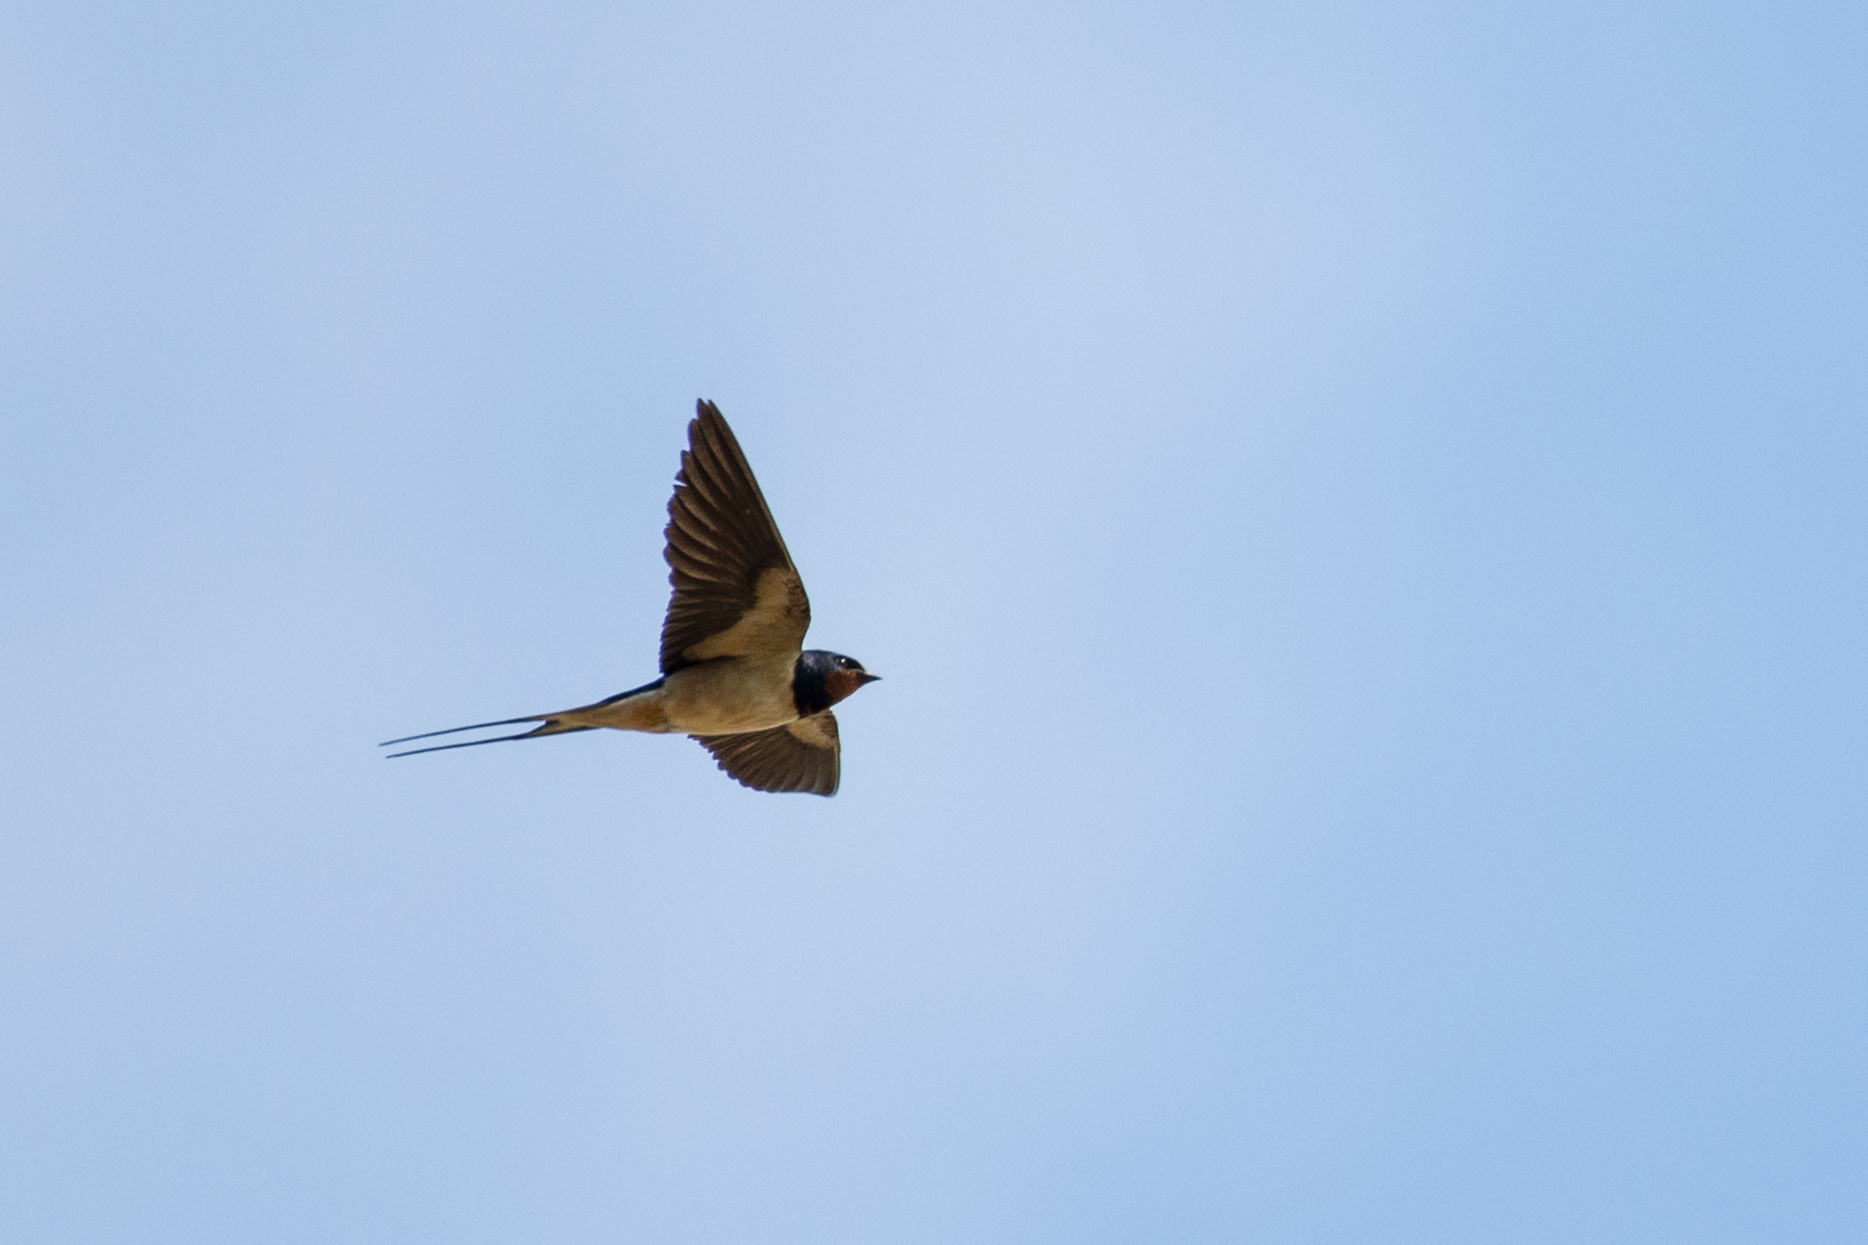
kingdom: Animalia
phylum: Chordata
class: Aves
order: Passeriformes
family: Hirundinidae
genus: Hirundo
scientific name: Hirundo rustica
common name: Barn swallow
